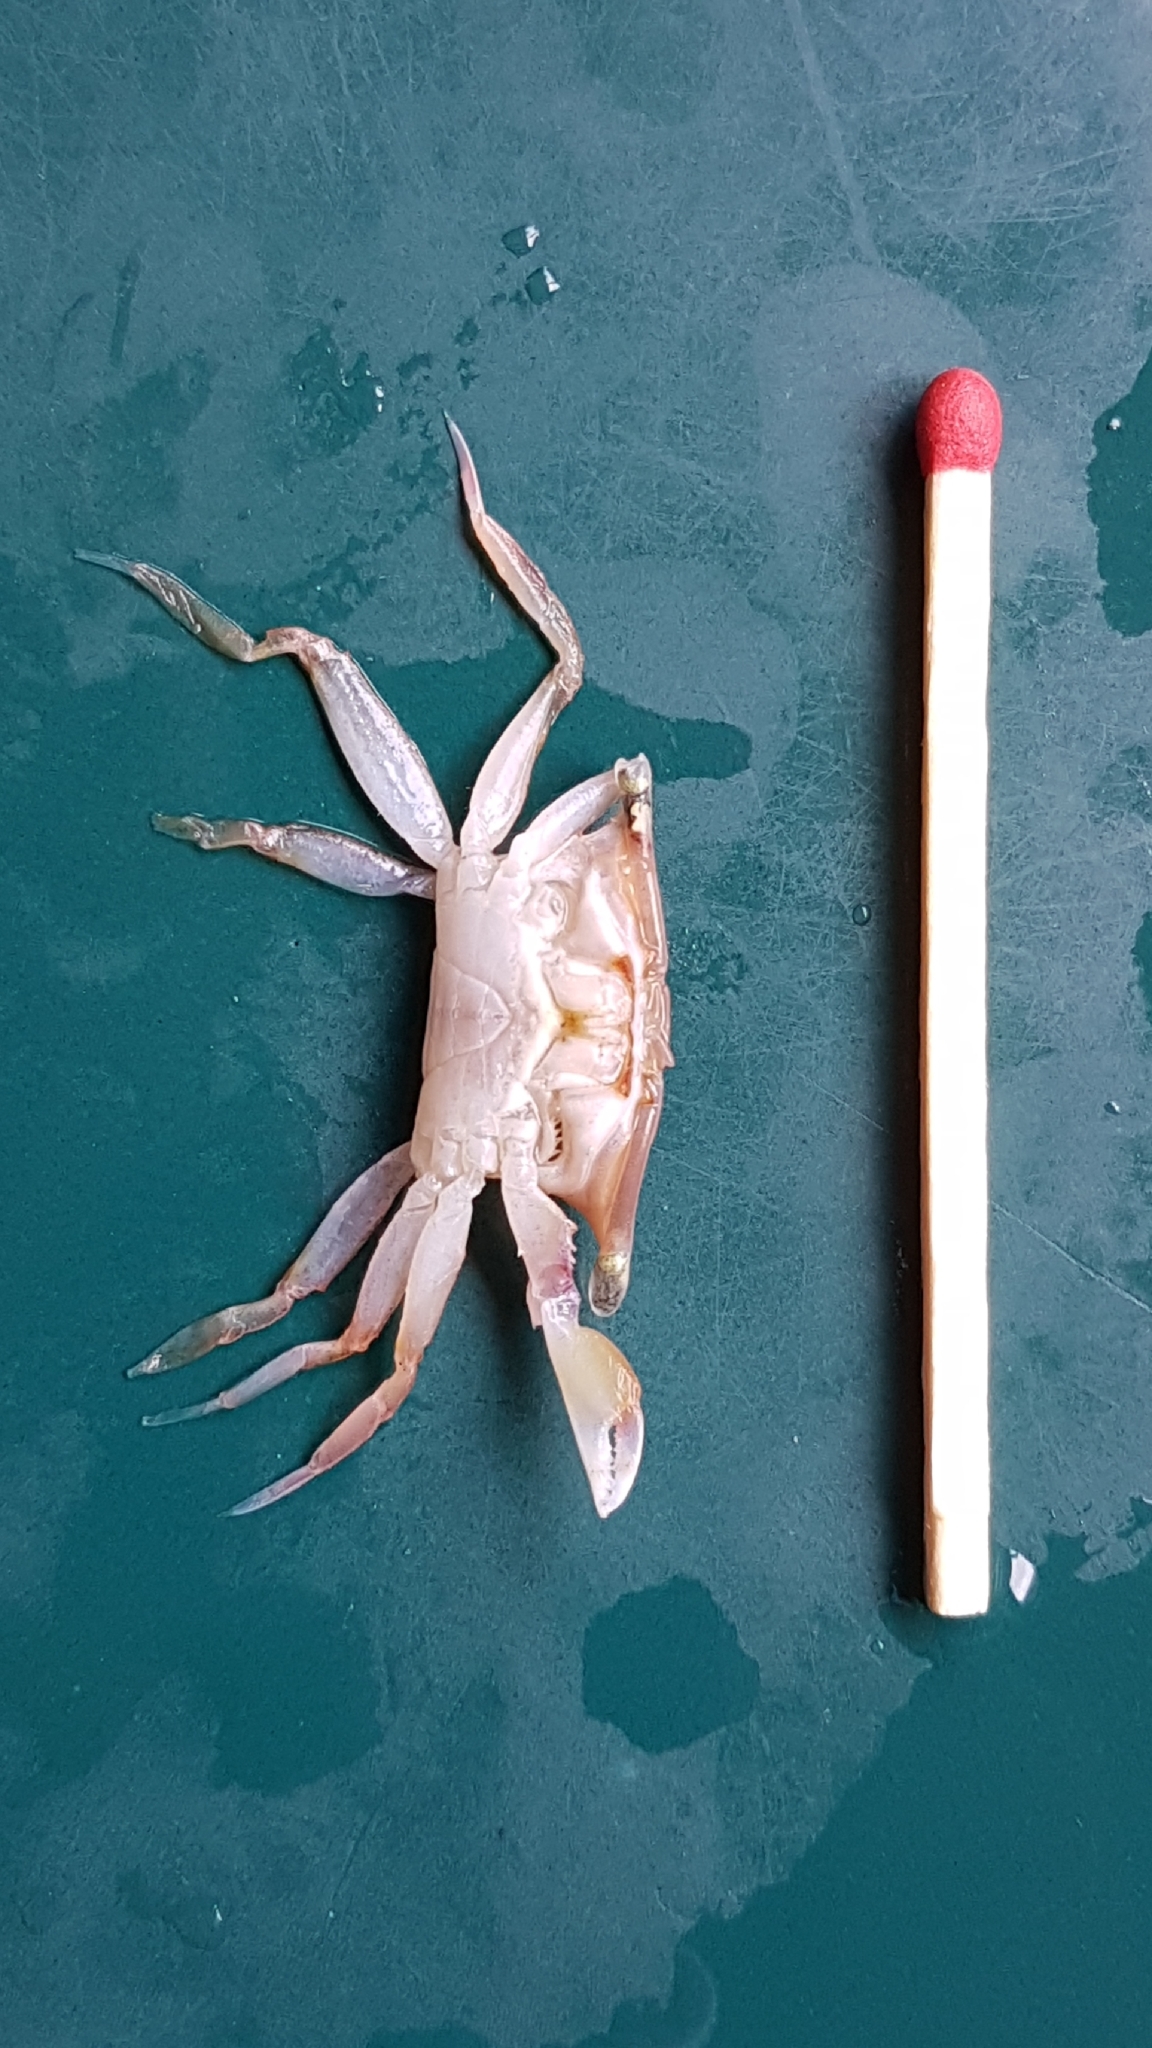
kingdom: Animalia
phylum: Arthropoda
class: Malacostraca
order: Decapoda
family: Goneplacidae
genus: Neommatocarcinus
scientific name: Neommatocarcinus huttoni
